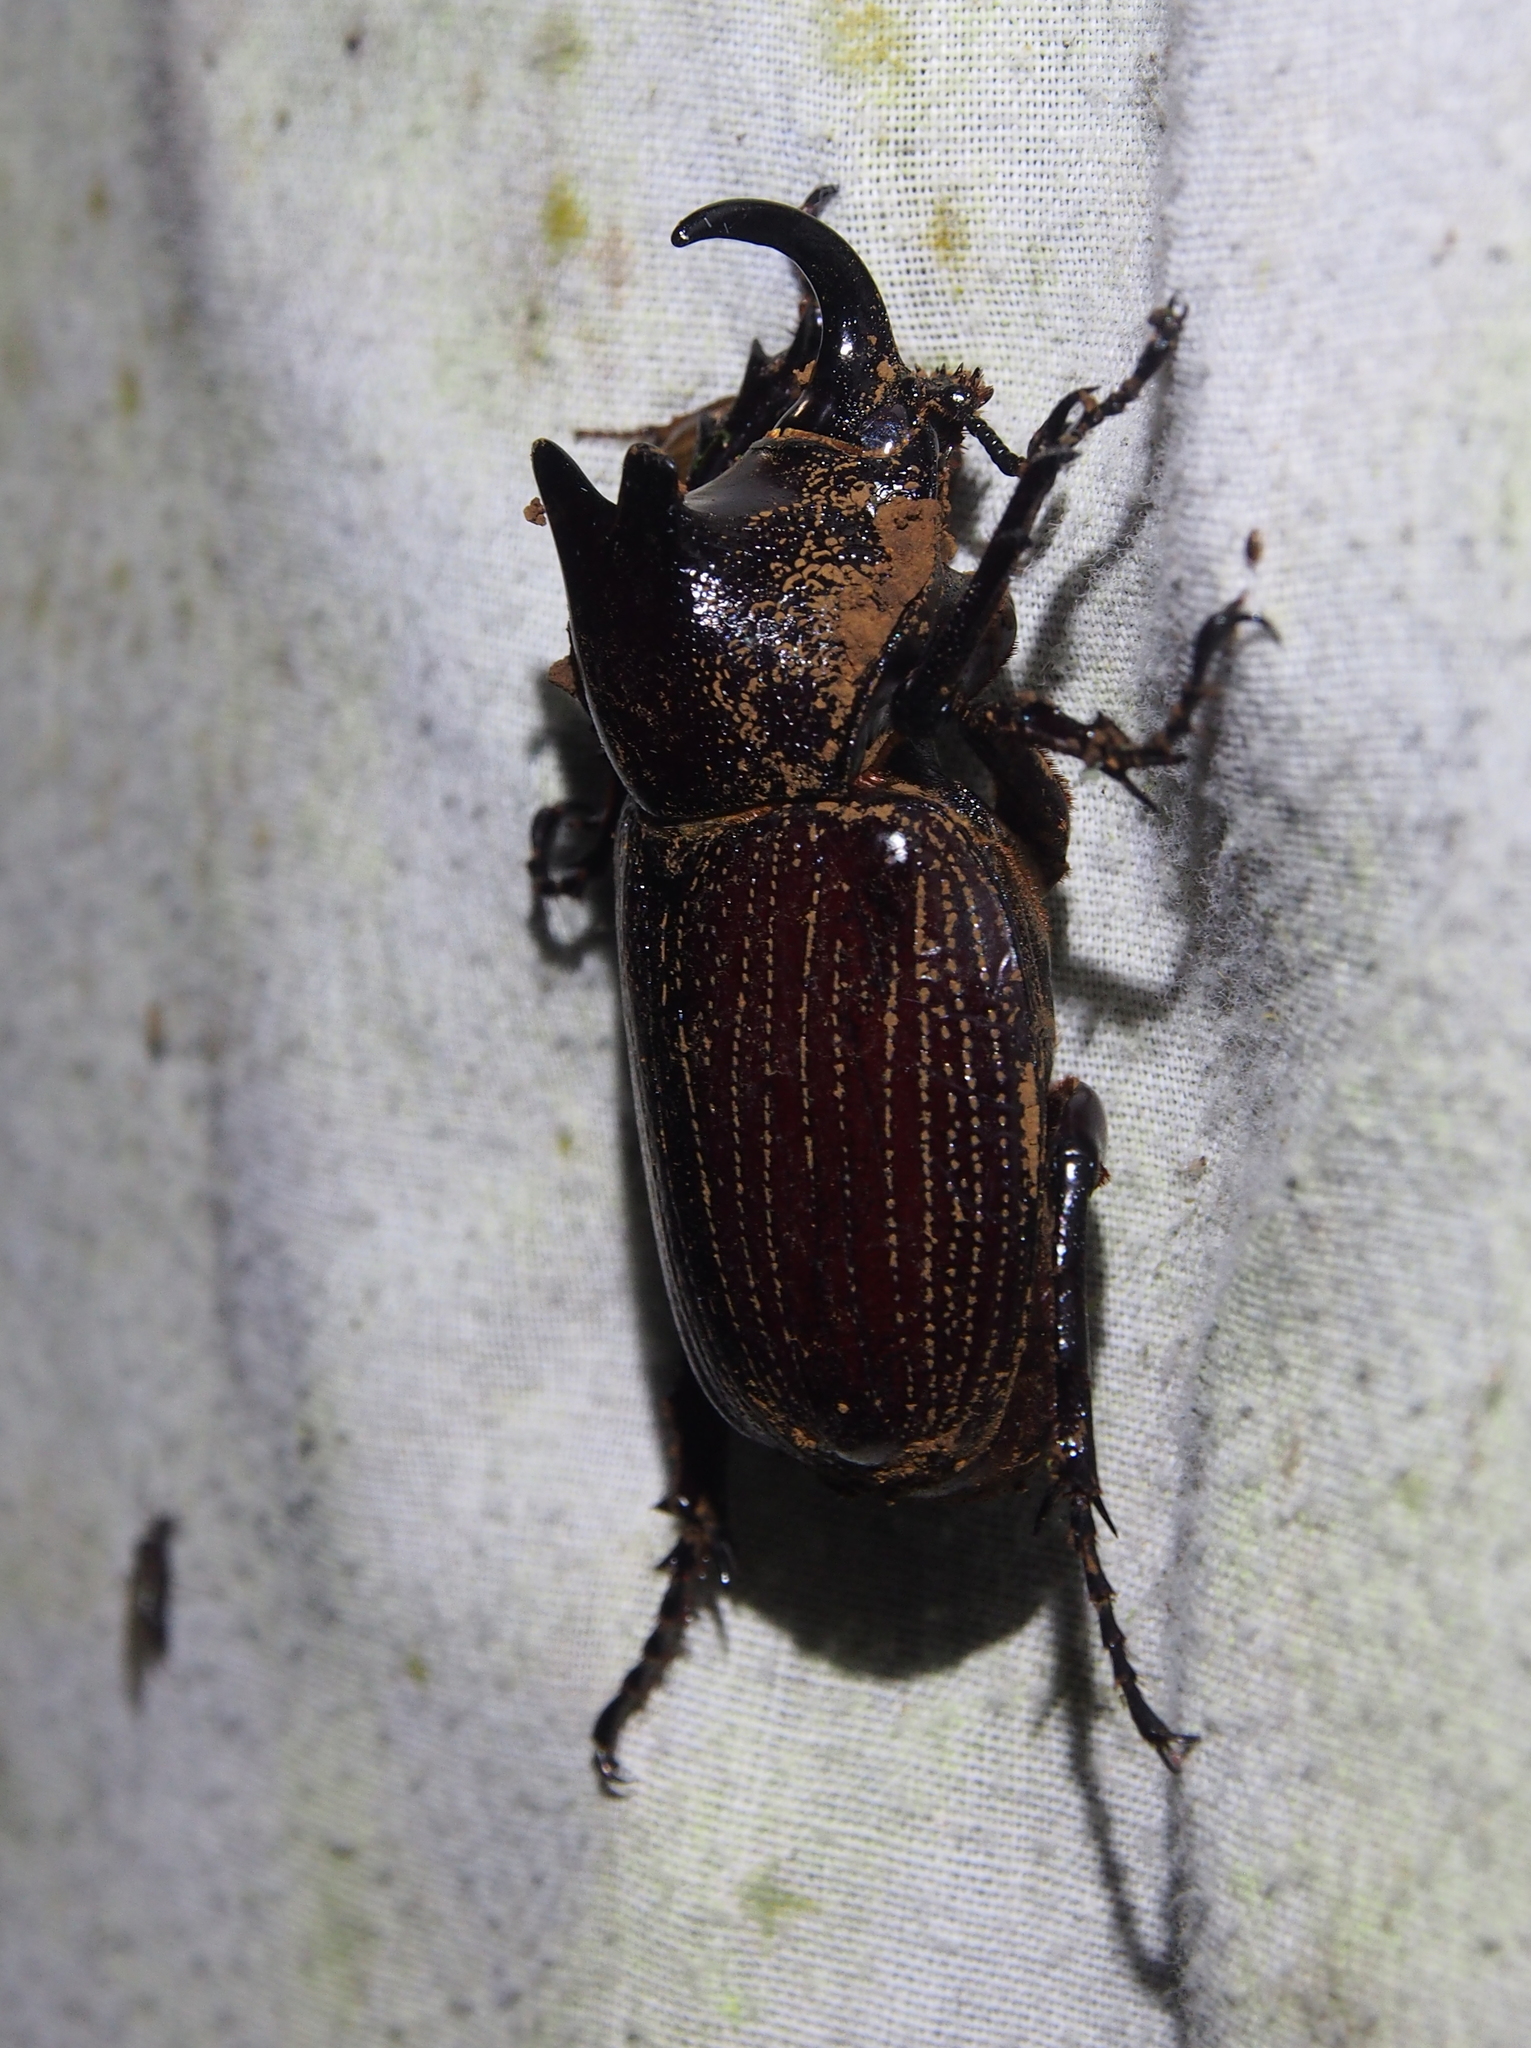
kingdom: Animalia
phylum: Arthropoda
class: Insecta
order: Coleoptera
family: Scarabaeidae
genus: Coelosis
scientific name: Coelosis biloba
